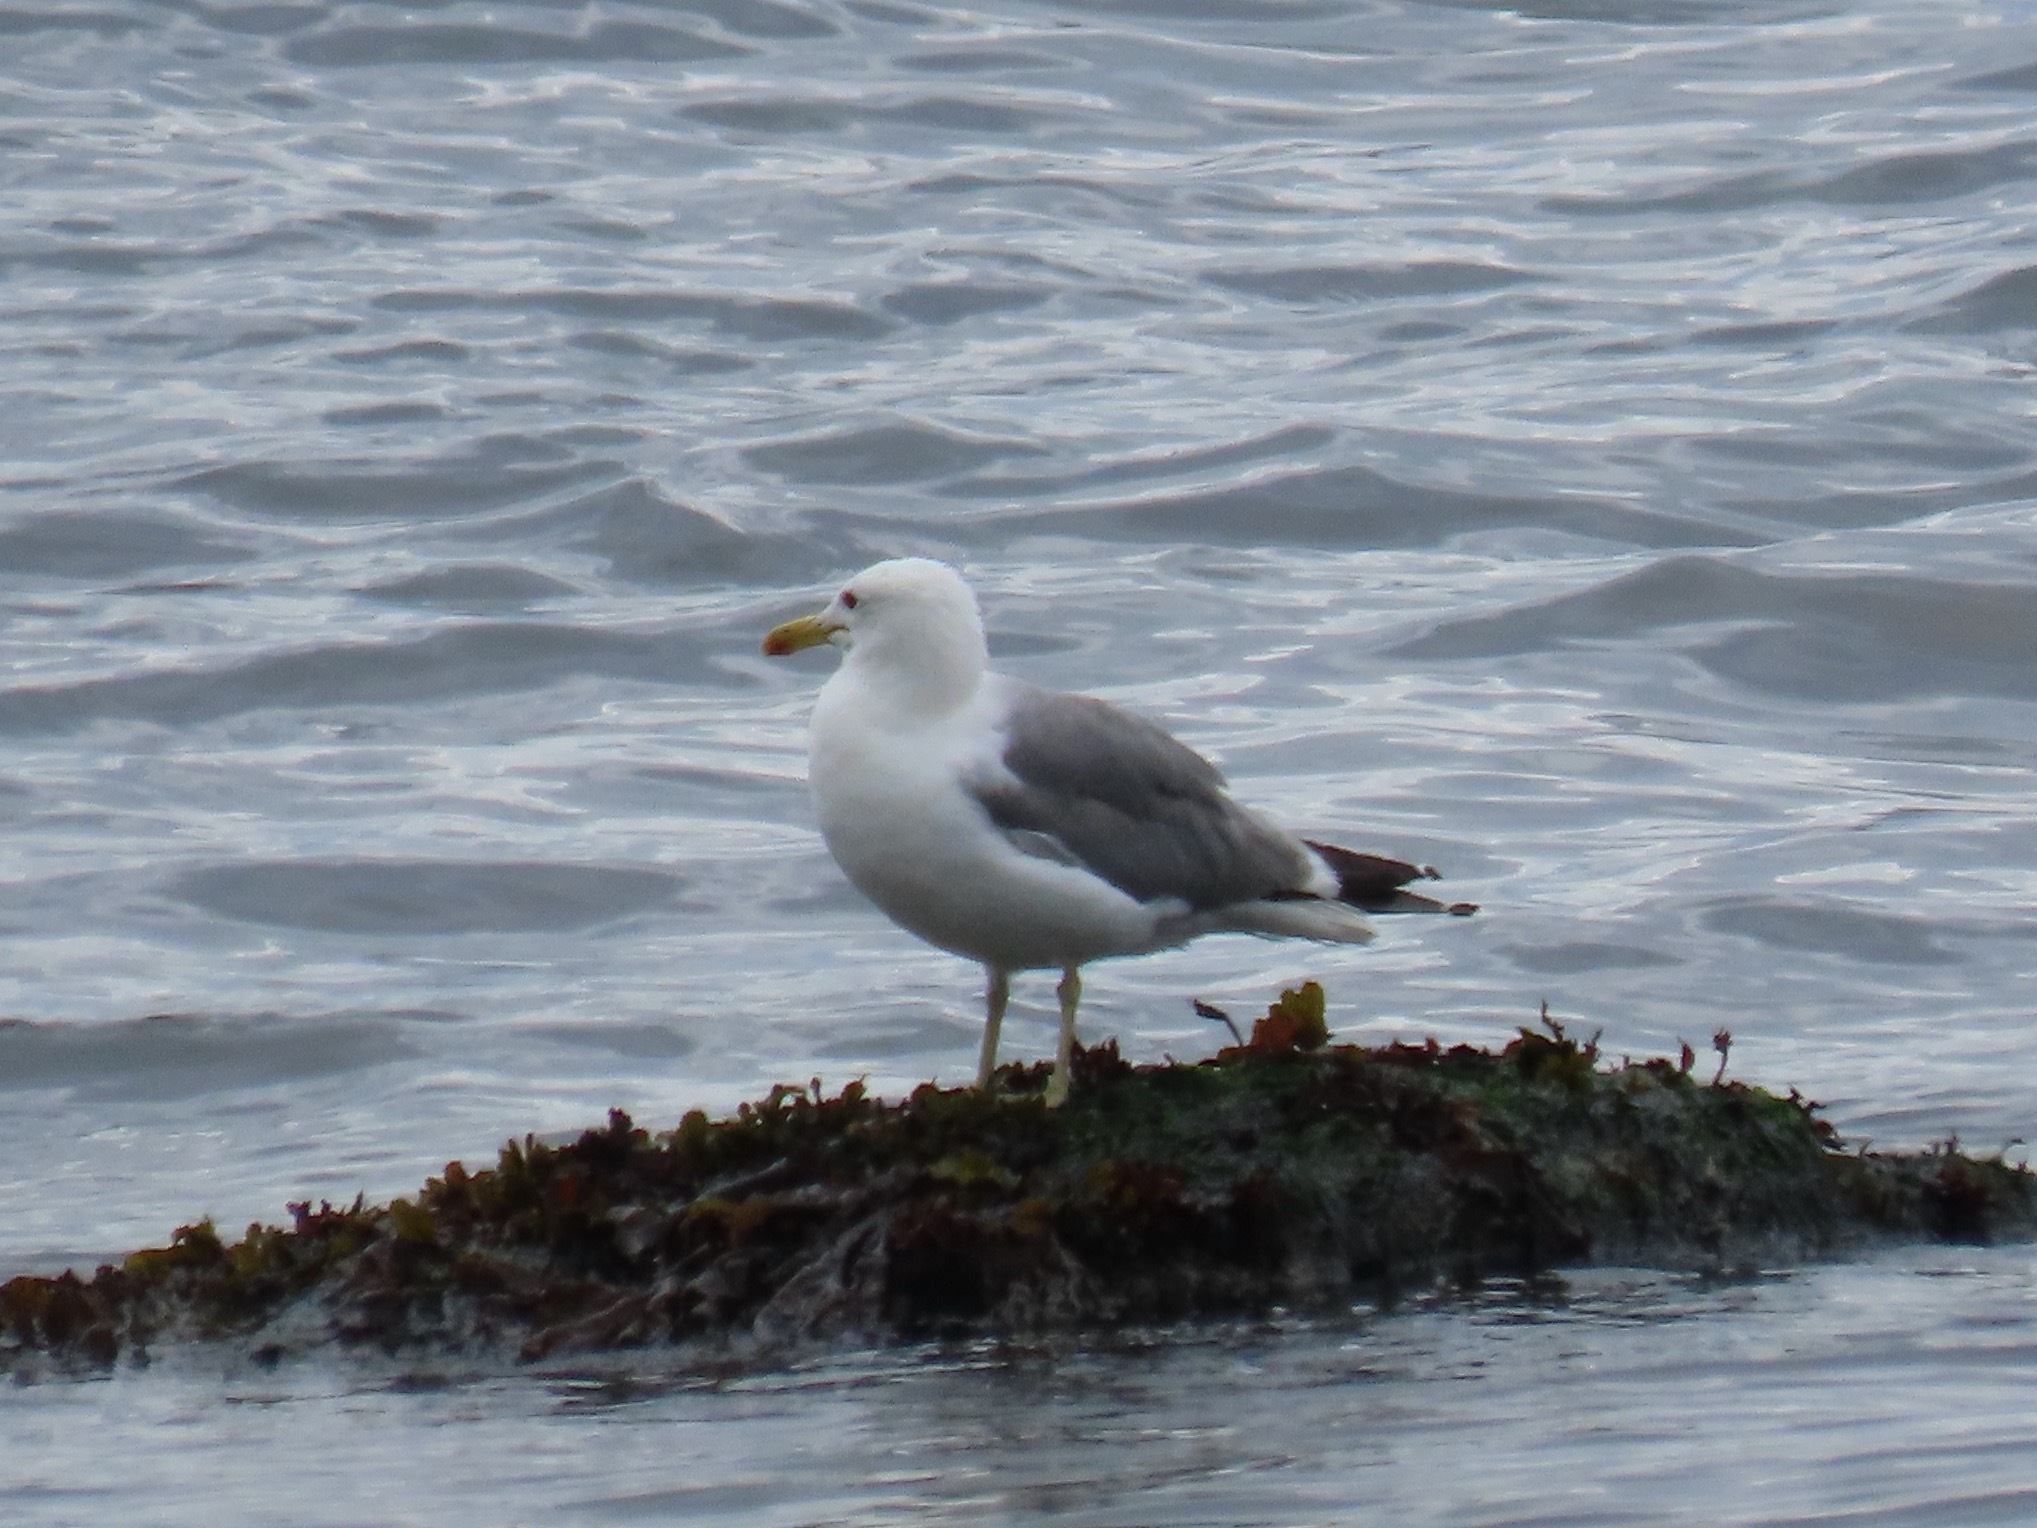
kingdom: Animalia
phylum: Chordata
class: Aves
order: Charadriiformes
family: Laridae
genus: Larus
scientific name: Larus californicus
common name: California gull
